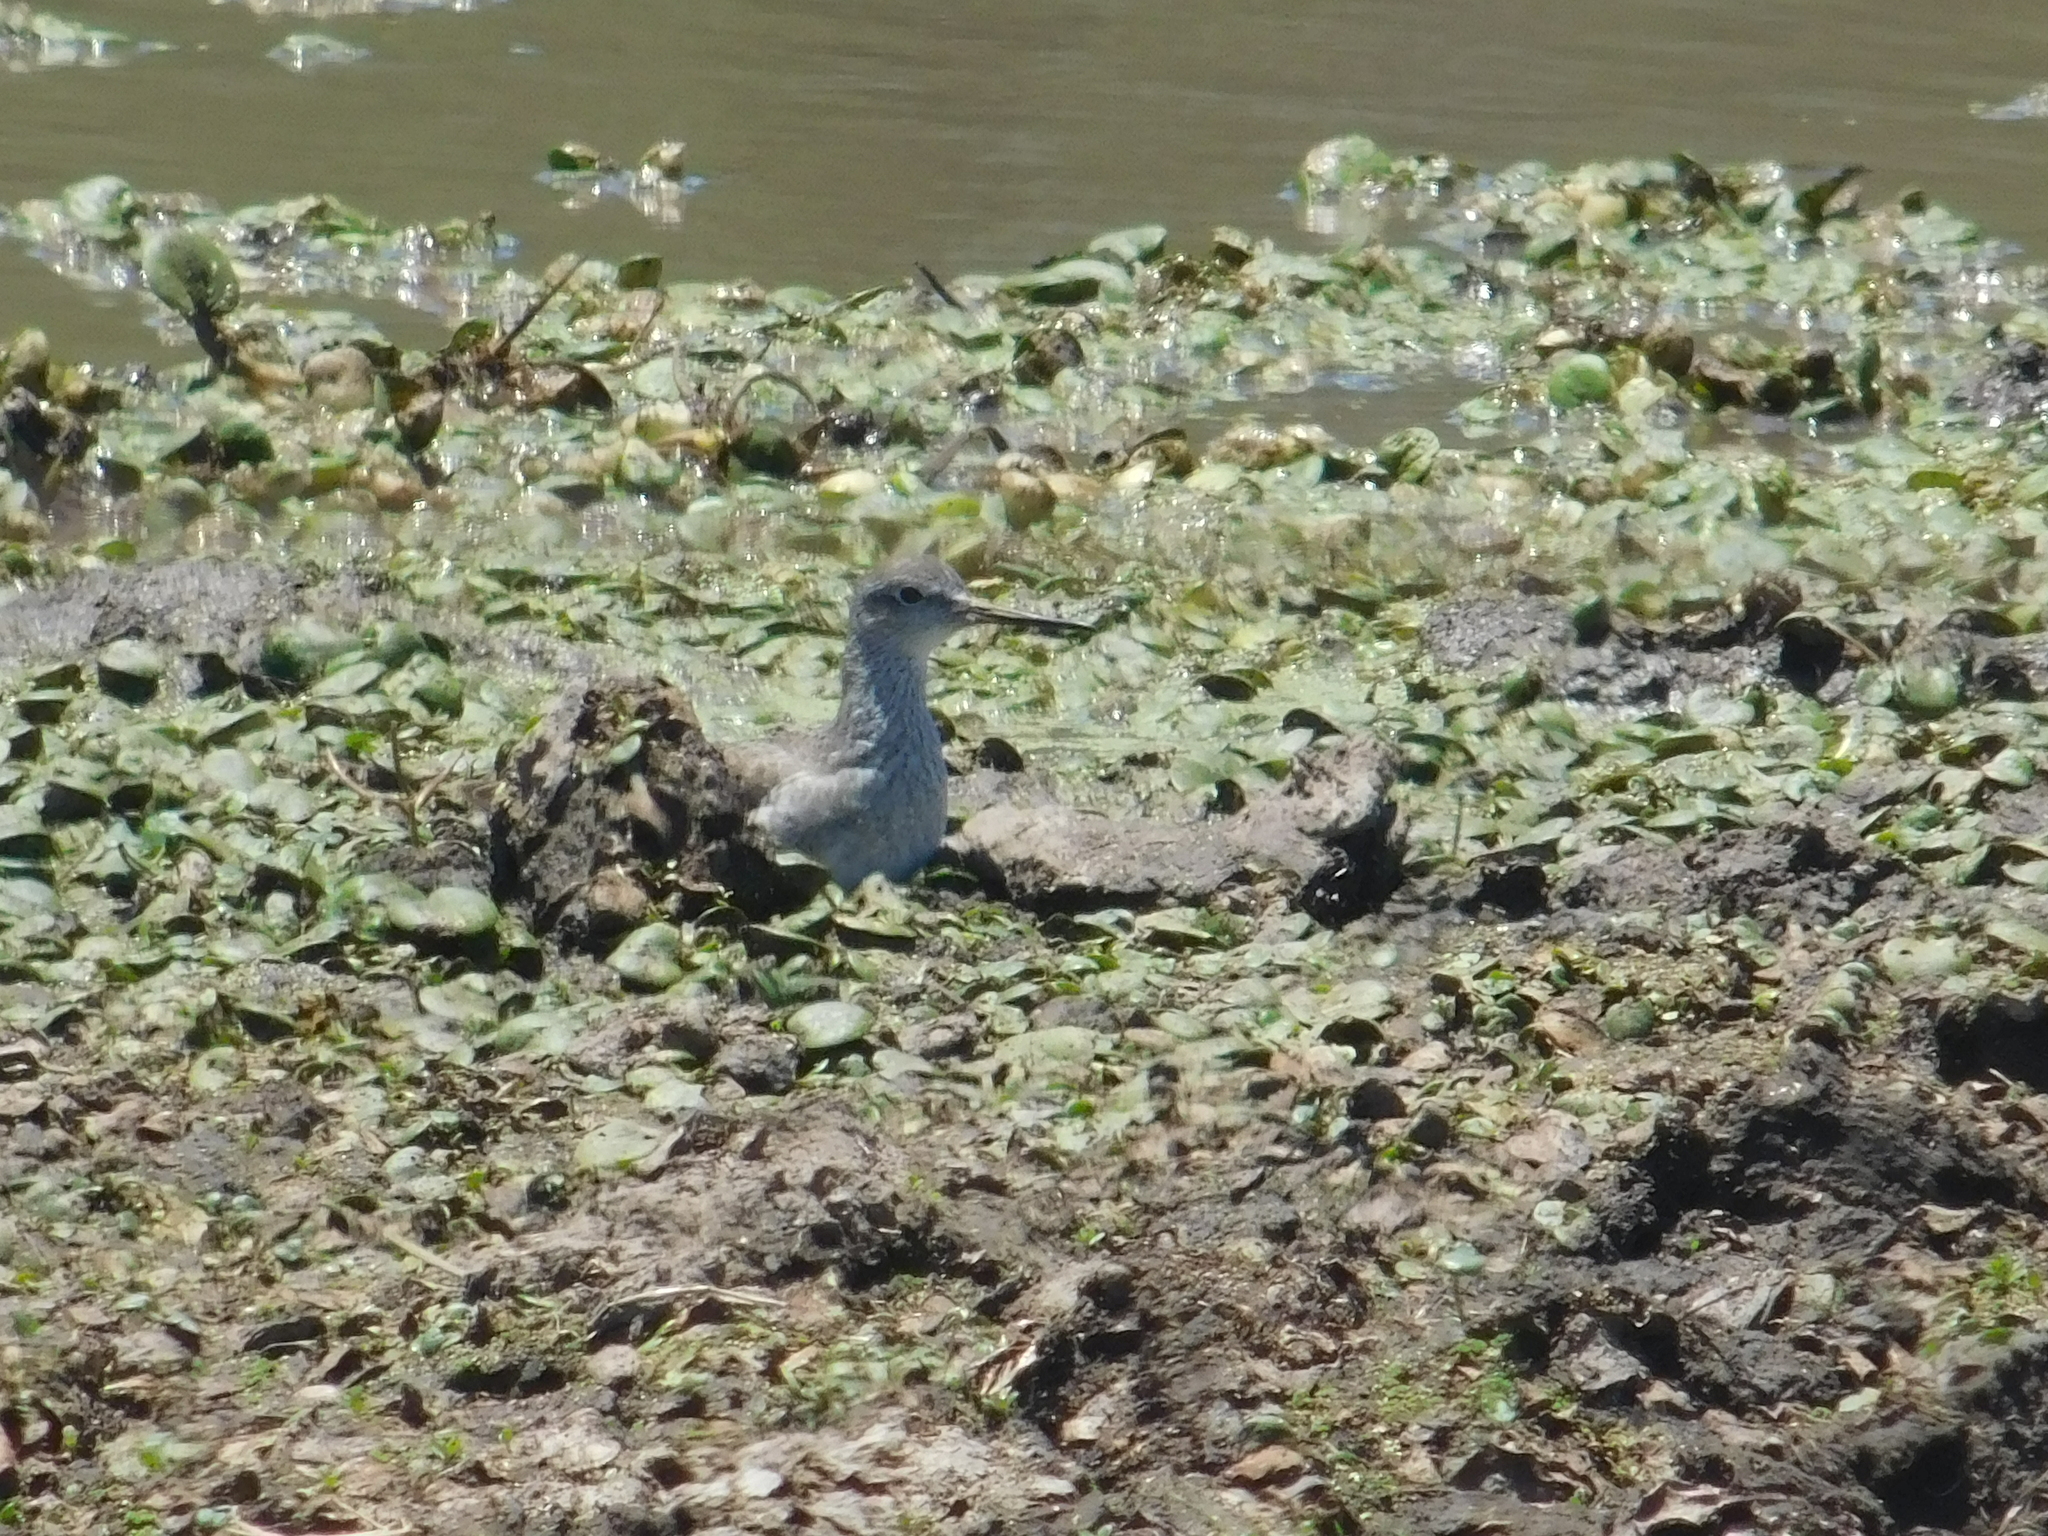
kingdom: Animalia
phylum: Chordata
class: Aves
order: Charadriiformes
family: Scolopacidae
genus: Tringa
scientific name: Tringa melanoleuca
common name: Greater yellowlegs
